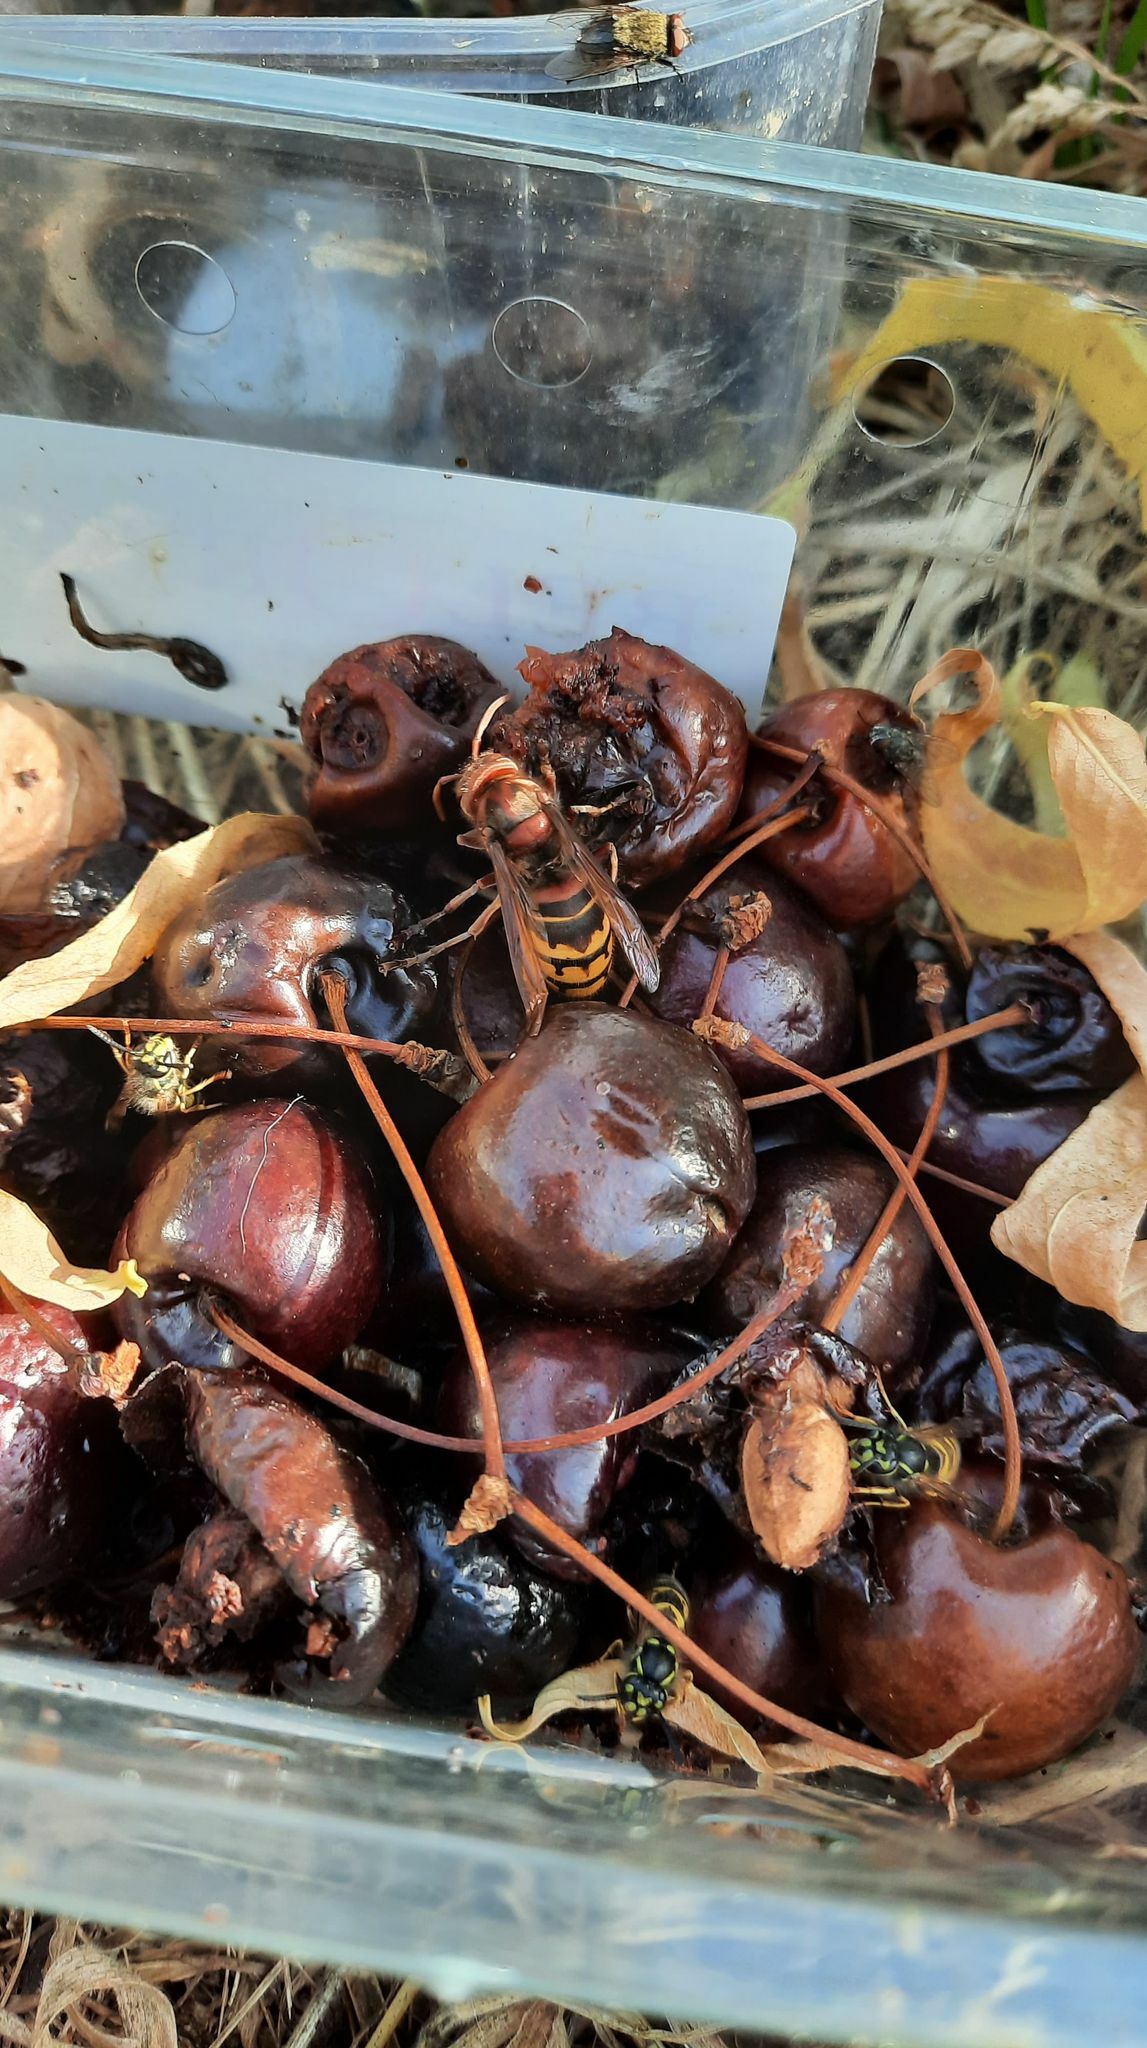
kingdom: Animalia
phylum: Arthropoda
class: Insecta
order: Hymenoptera
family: Vespidae
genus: Vespa
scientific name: Vespa crabro
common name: Hornet
